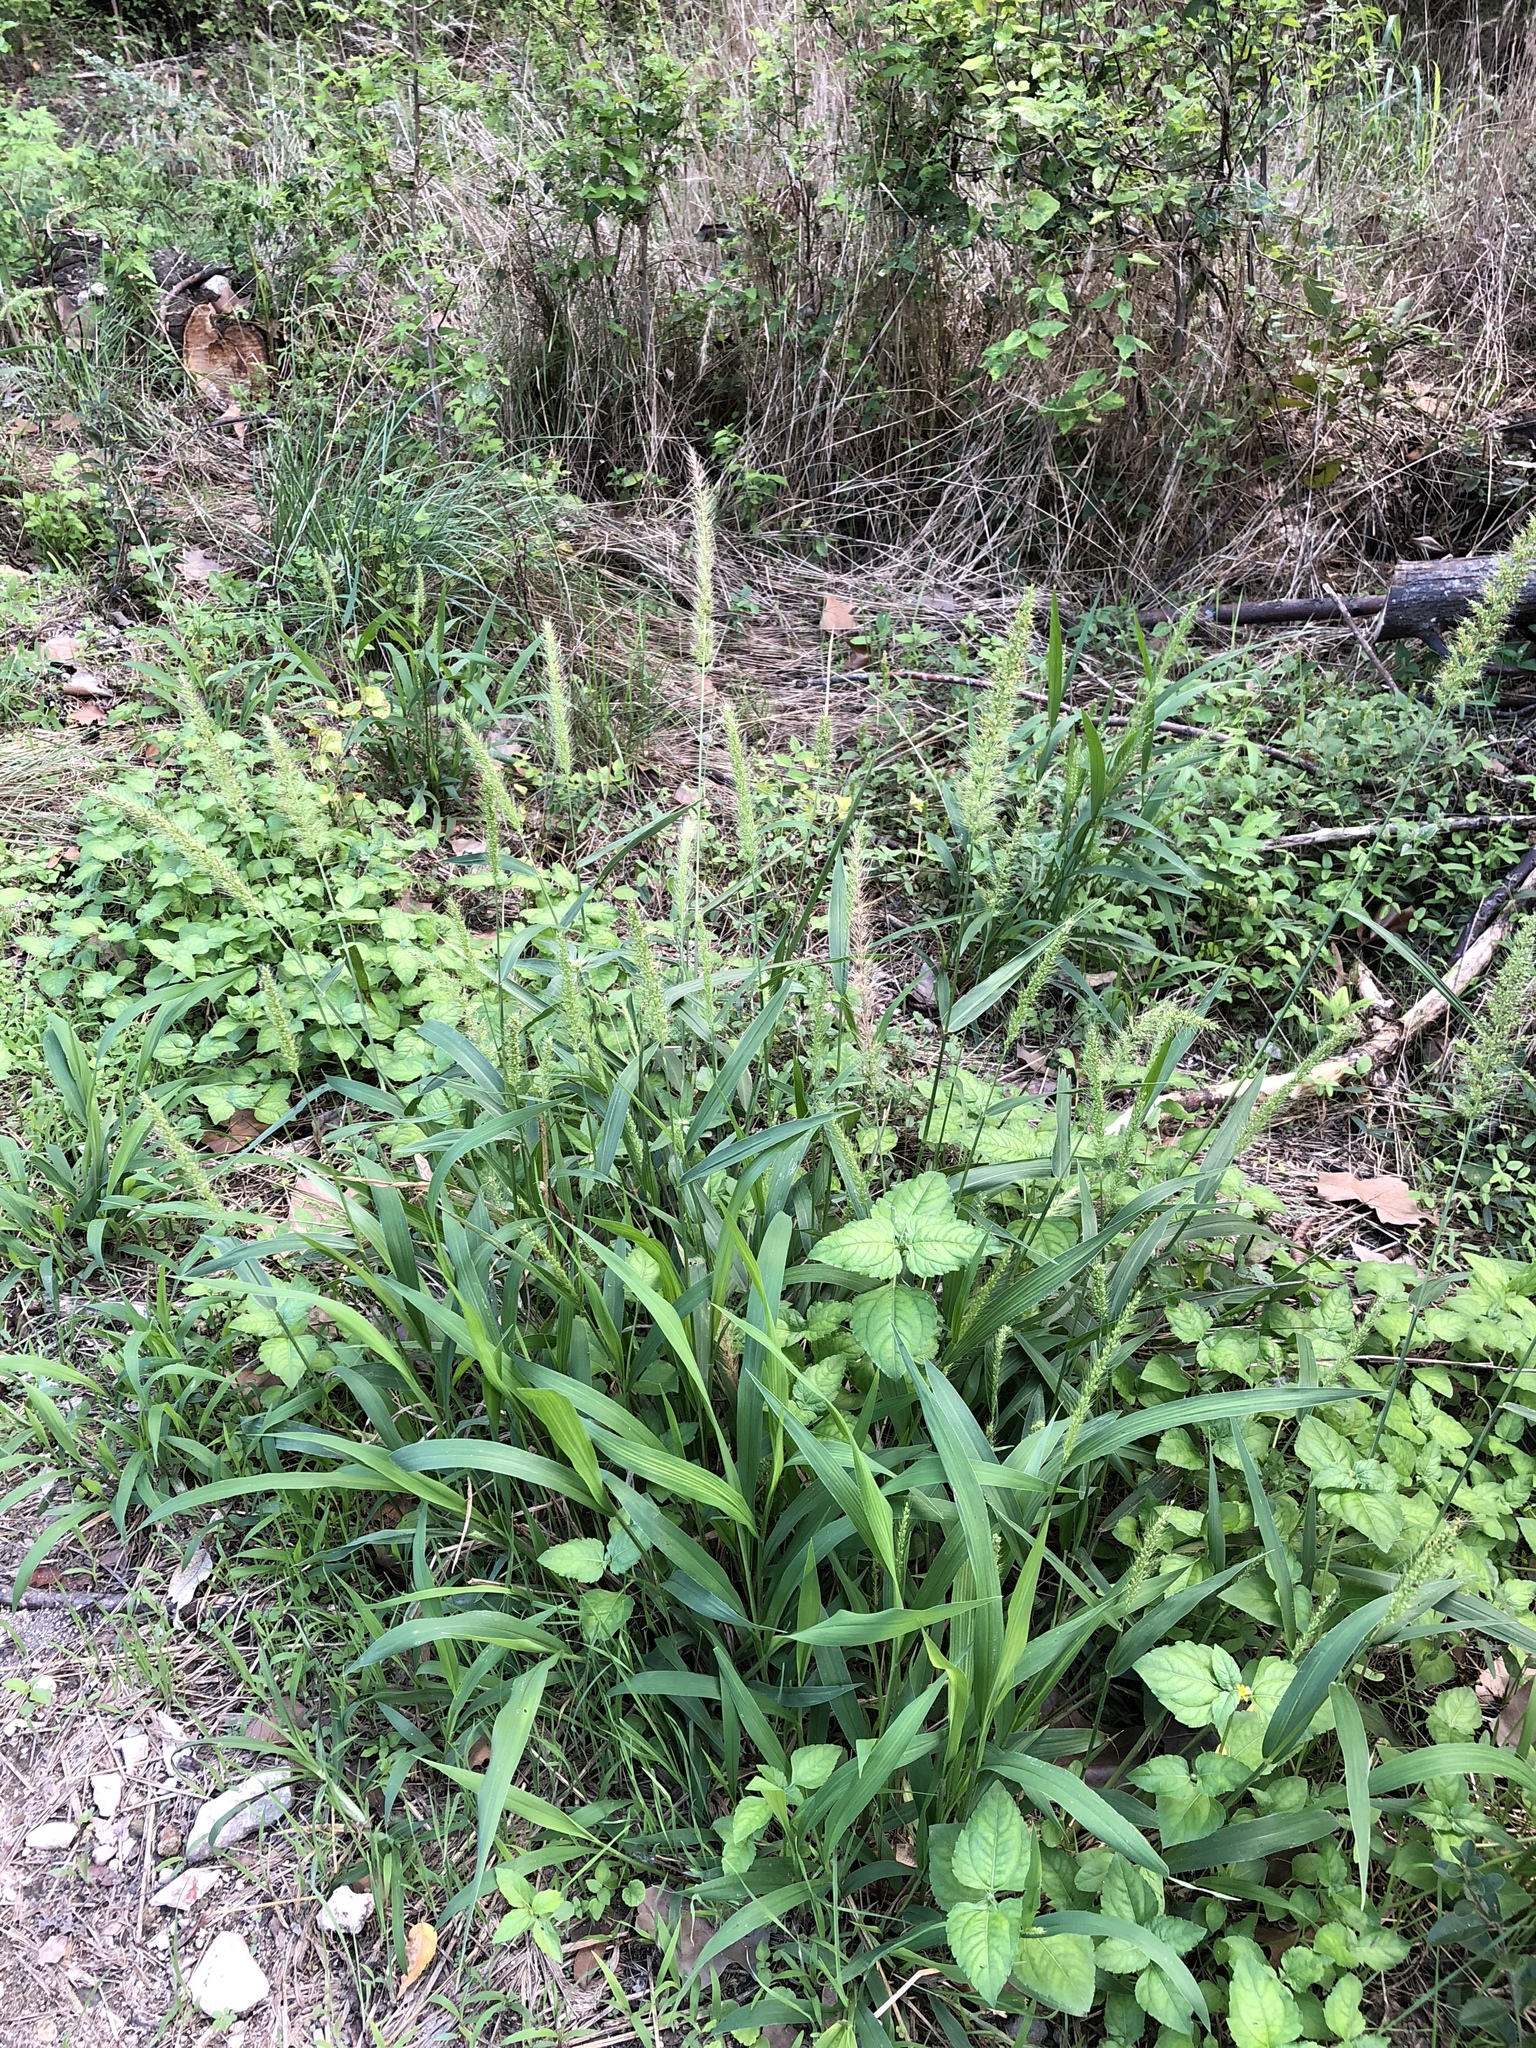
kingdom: Plantae
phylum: Tracheophyta
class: Liliopsida
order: Poales
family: Poaceae
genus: Setaria
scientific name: Setaria scheelei
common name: Southwestern bristle grass
